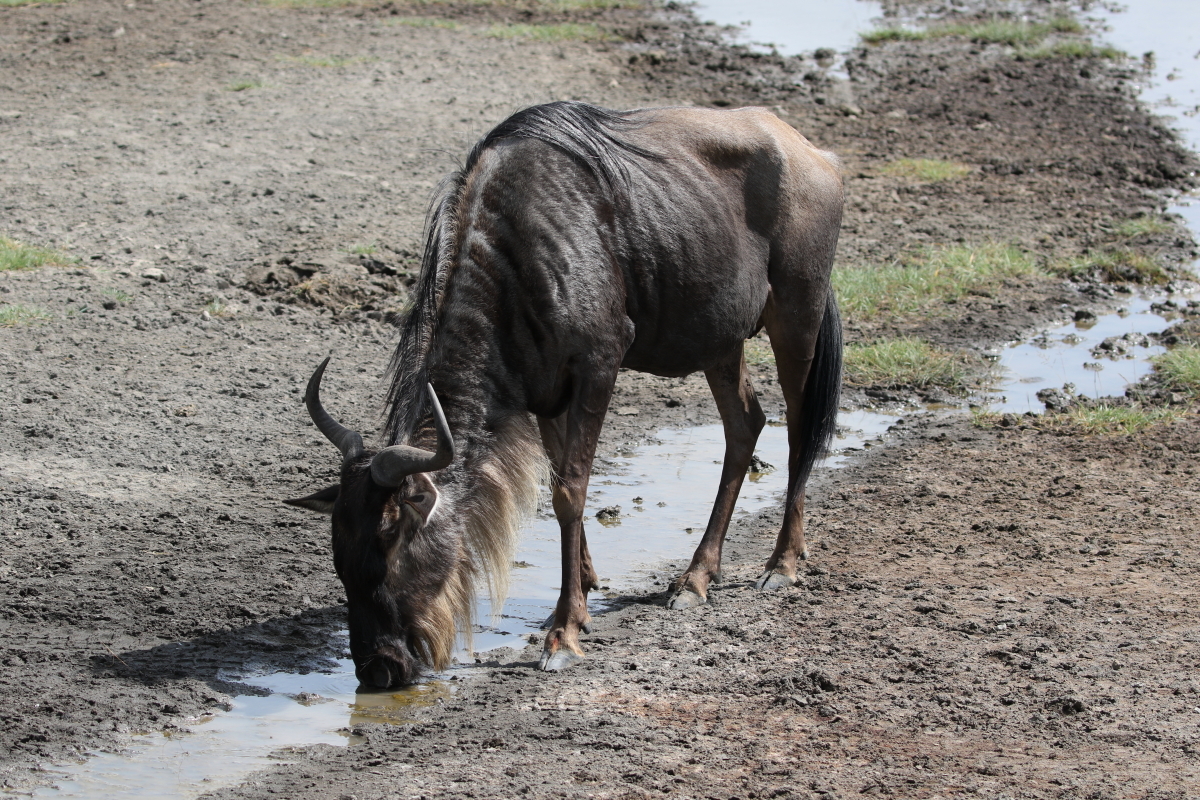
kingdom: Animalia
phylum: Chordata
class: Mammalia
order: Artiodactyla
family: Bovidae
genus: Connochaetes
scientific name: Connochaetes taurinus
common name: Blue wildebeest
